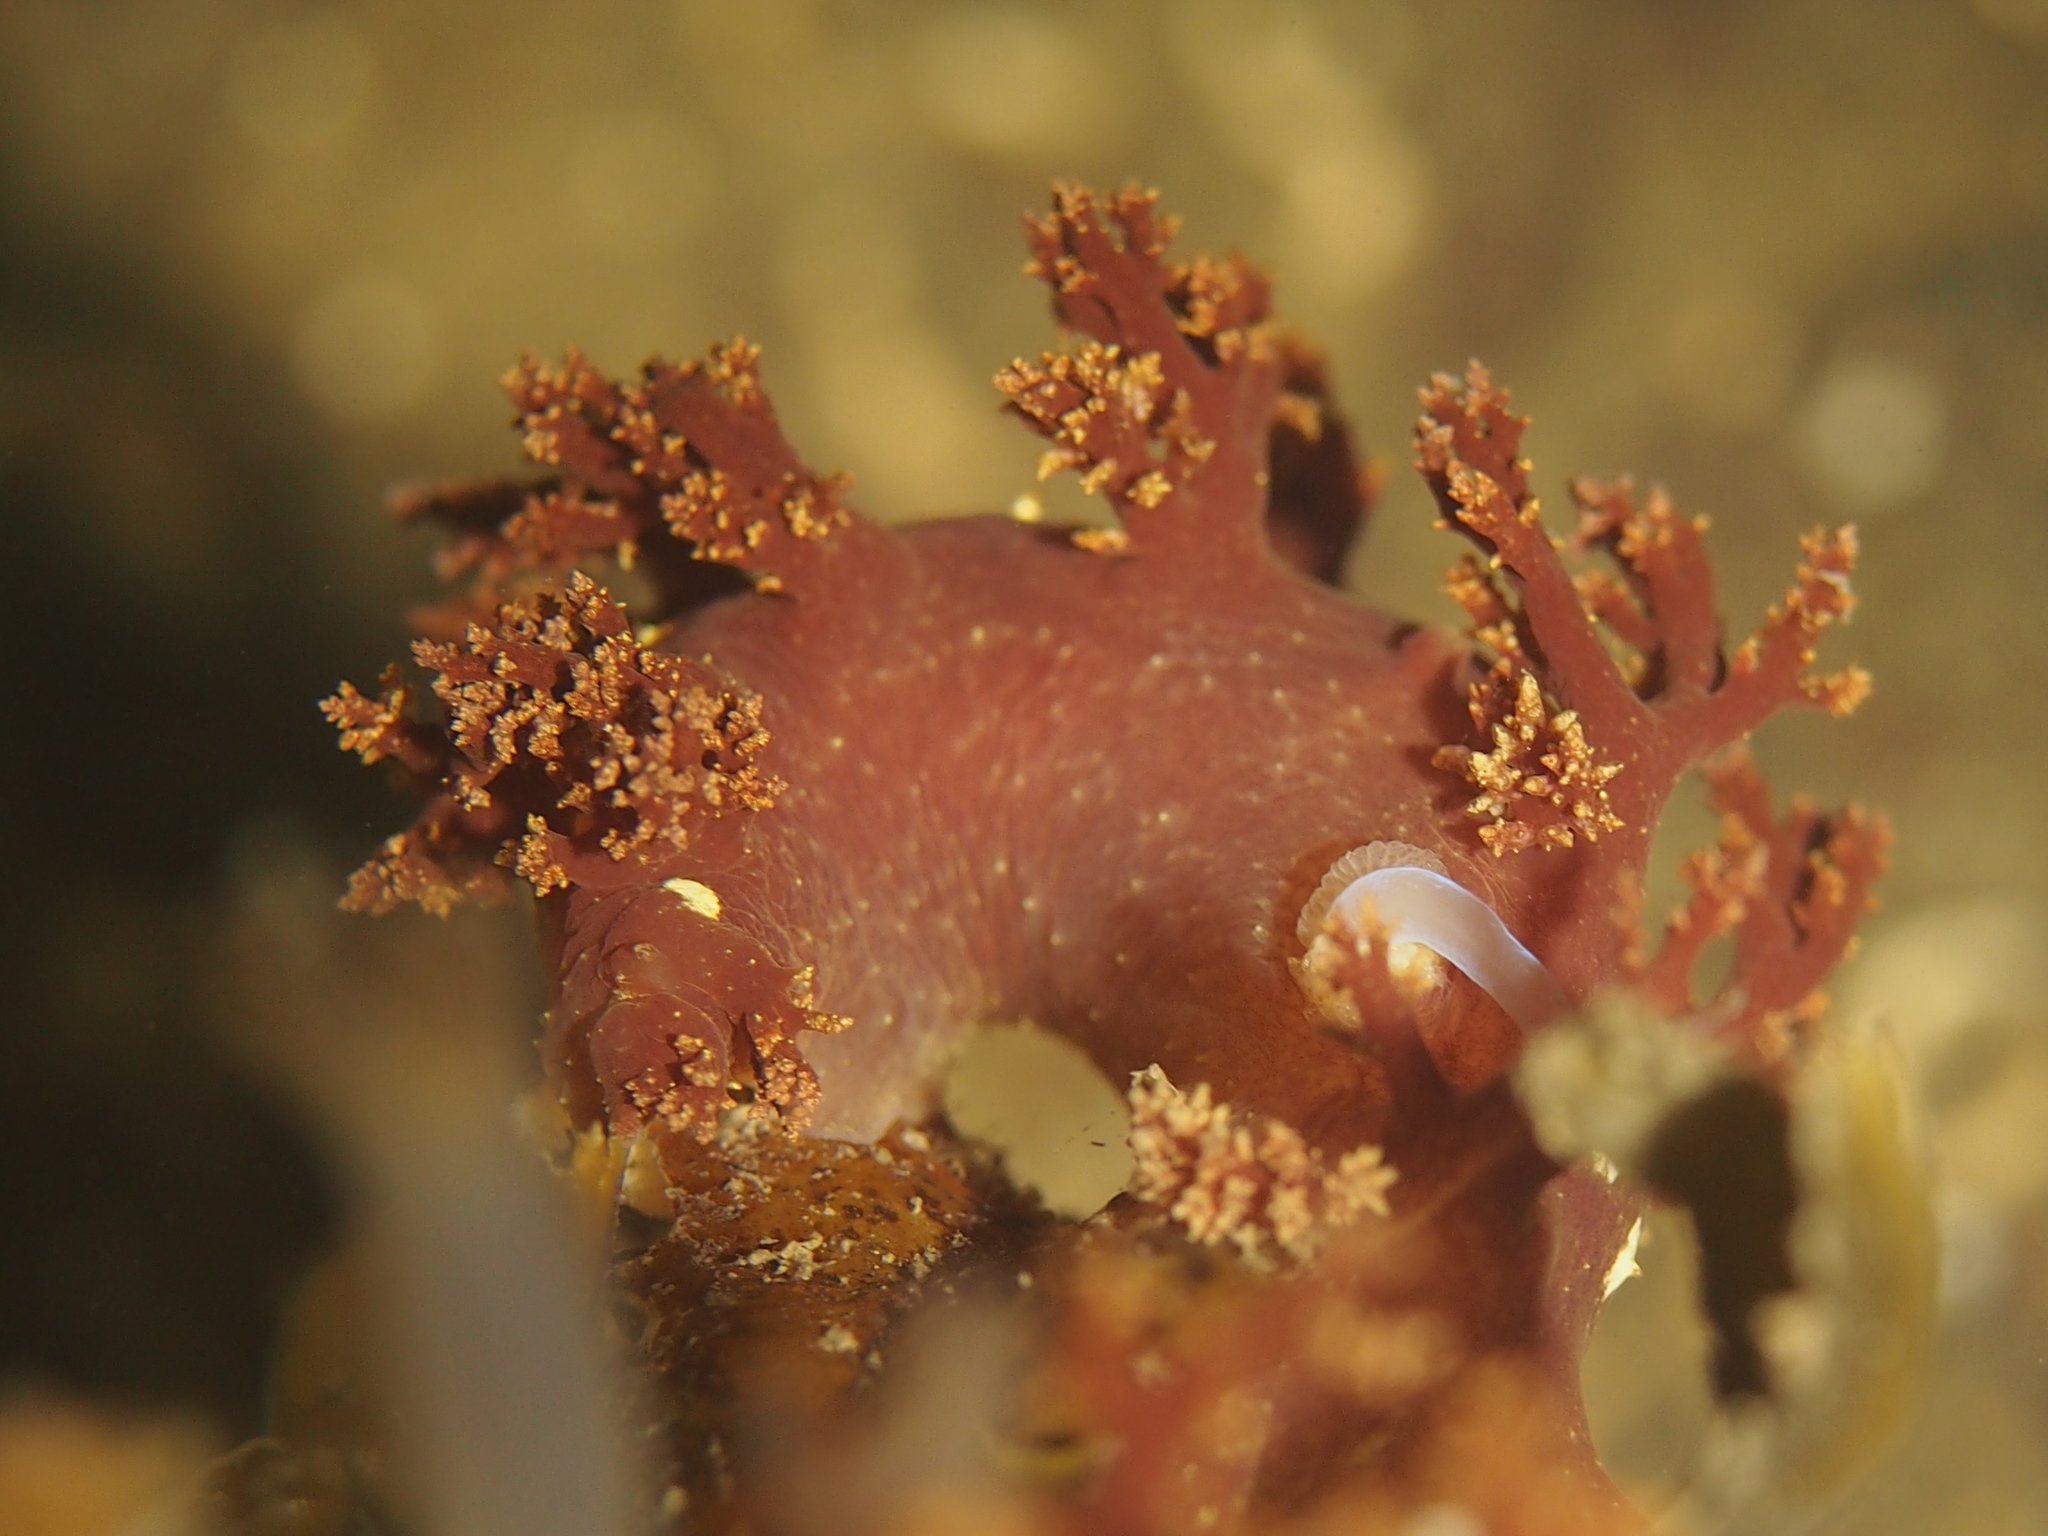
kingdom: Animalia
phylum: Mollusca
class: Gastropoda
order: Nudibranchia
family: Dendronotidae
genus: Dendronotus
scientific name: Dendronotus lacteus
